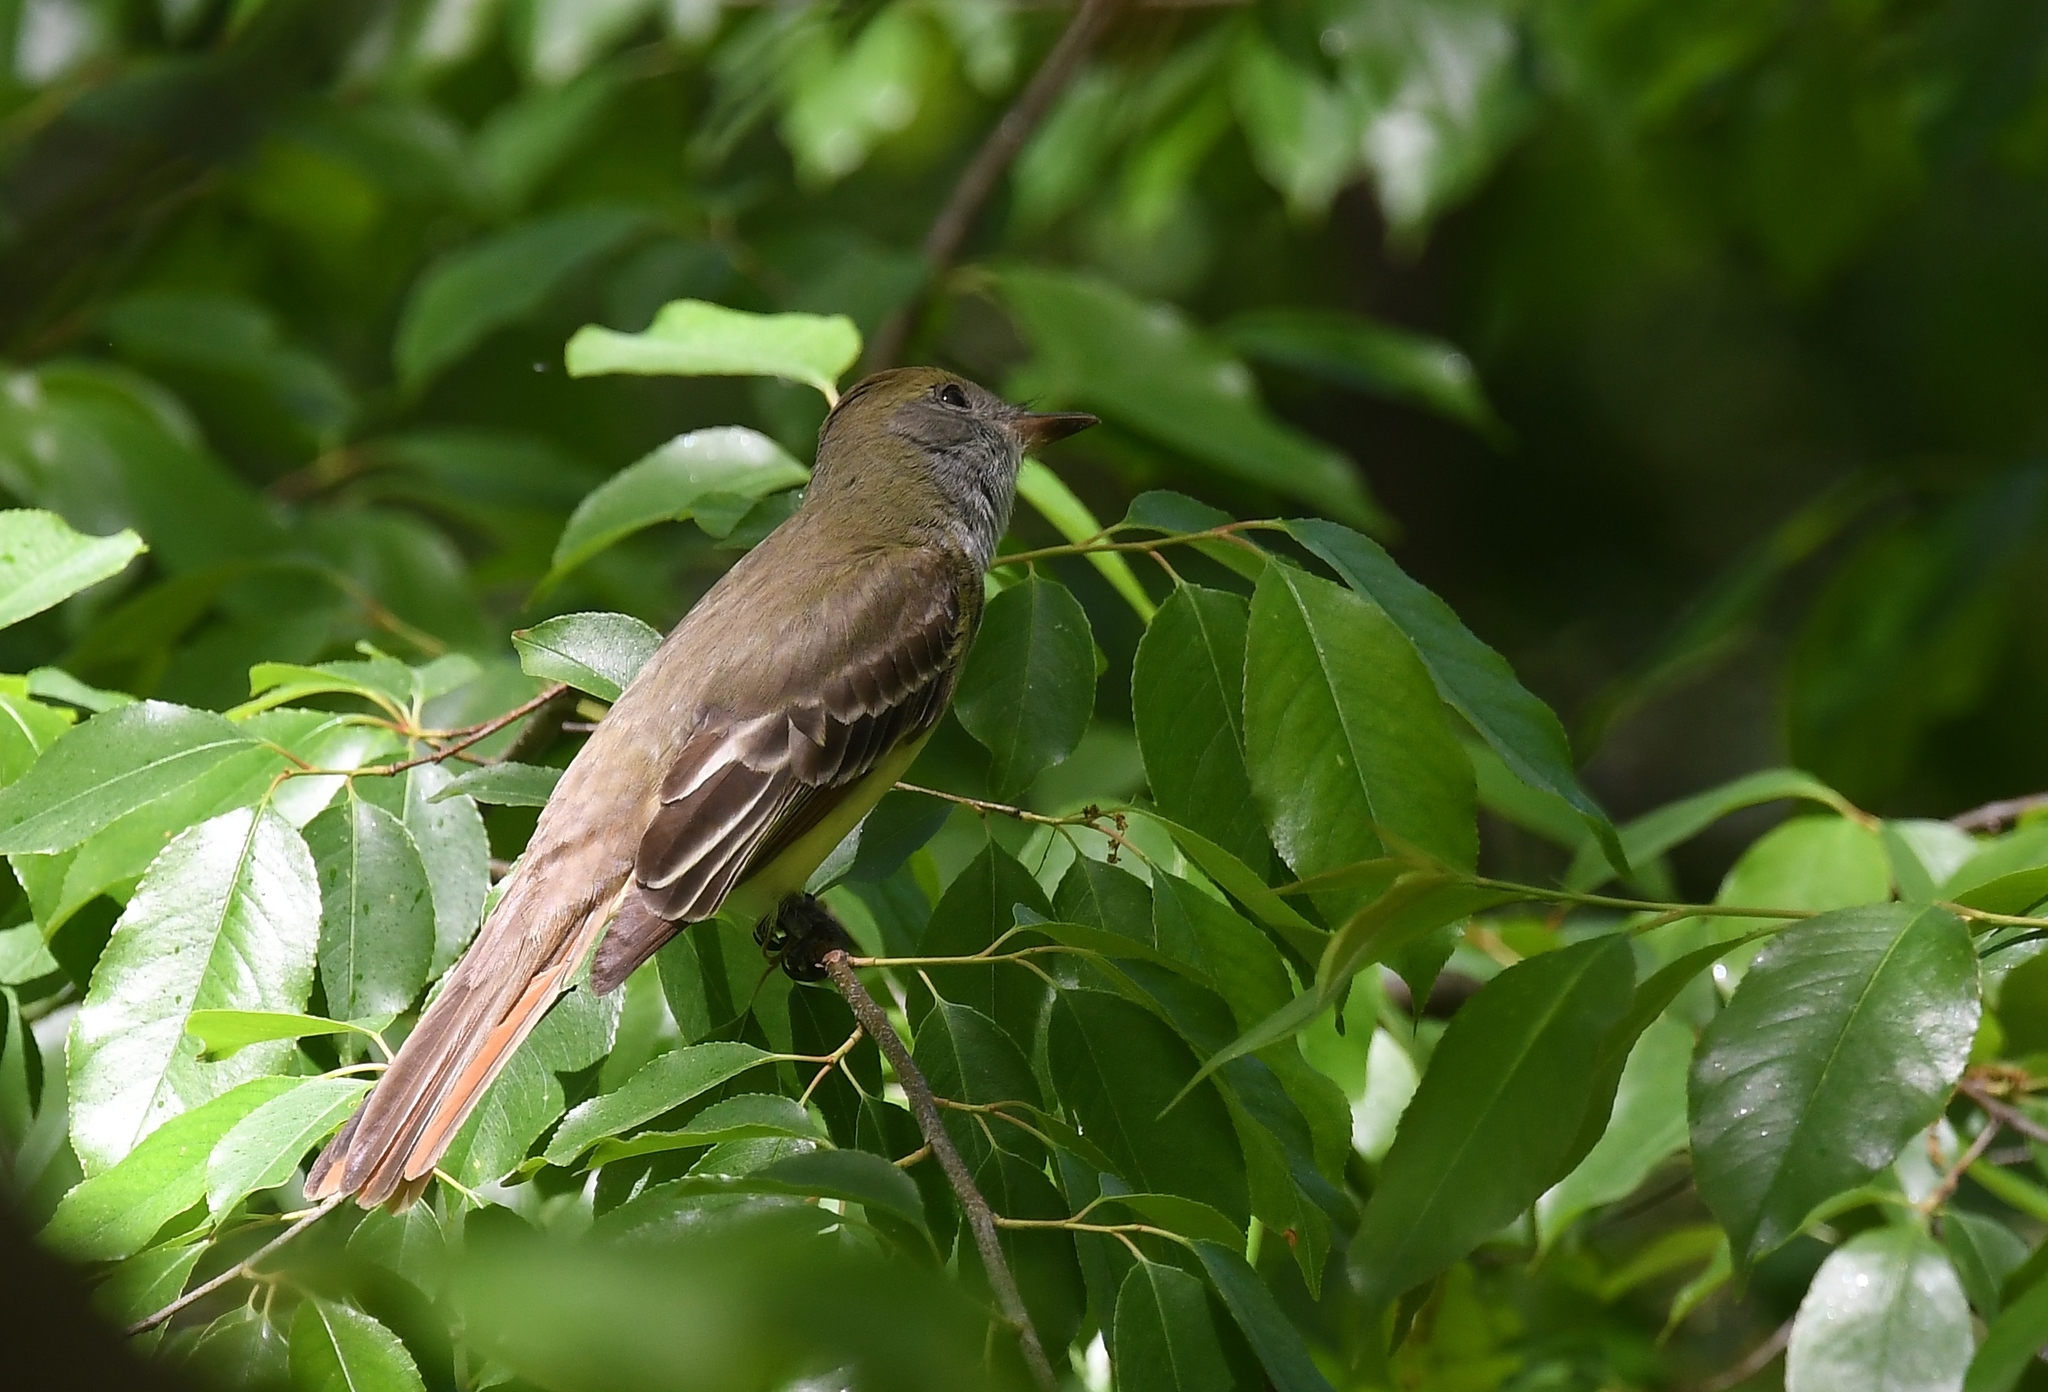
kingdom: Animalia
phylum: Chordata
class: Aves
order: Passeriformes
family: Tyrannidae
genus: Myiarchus
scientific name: Myiarchus crinitus
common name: Great crested flycatcher
